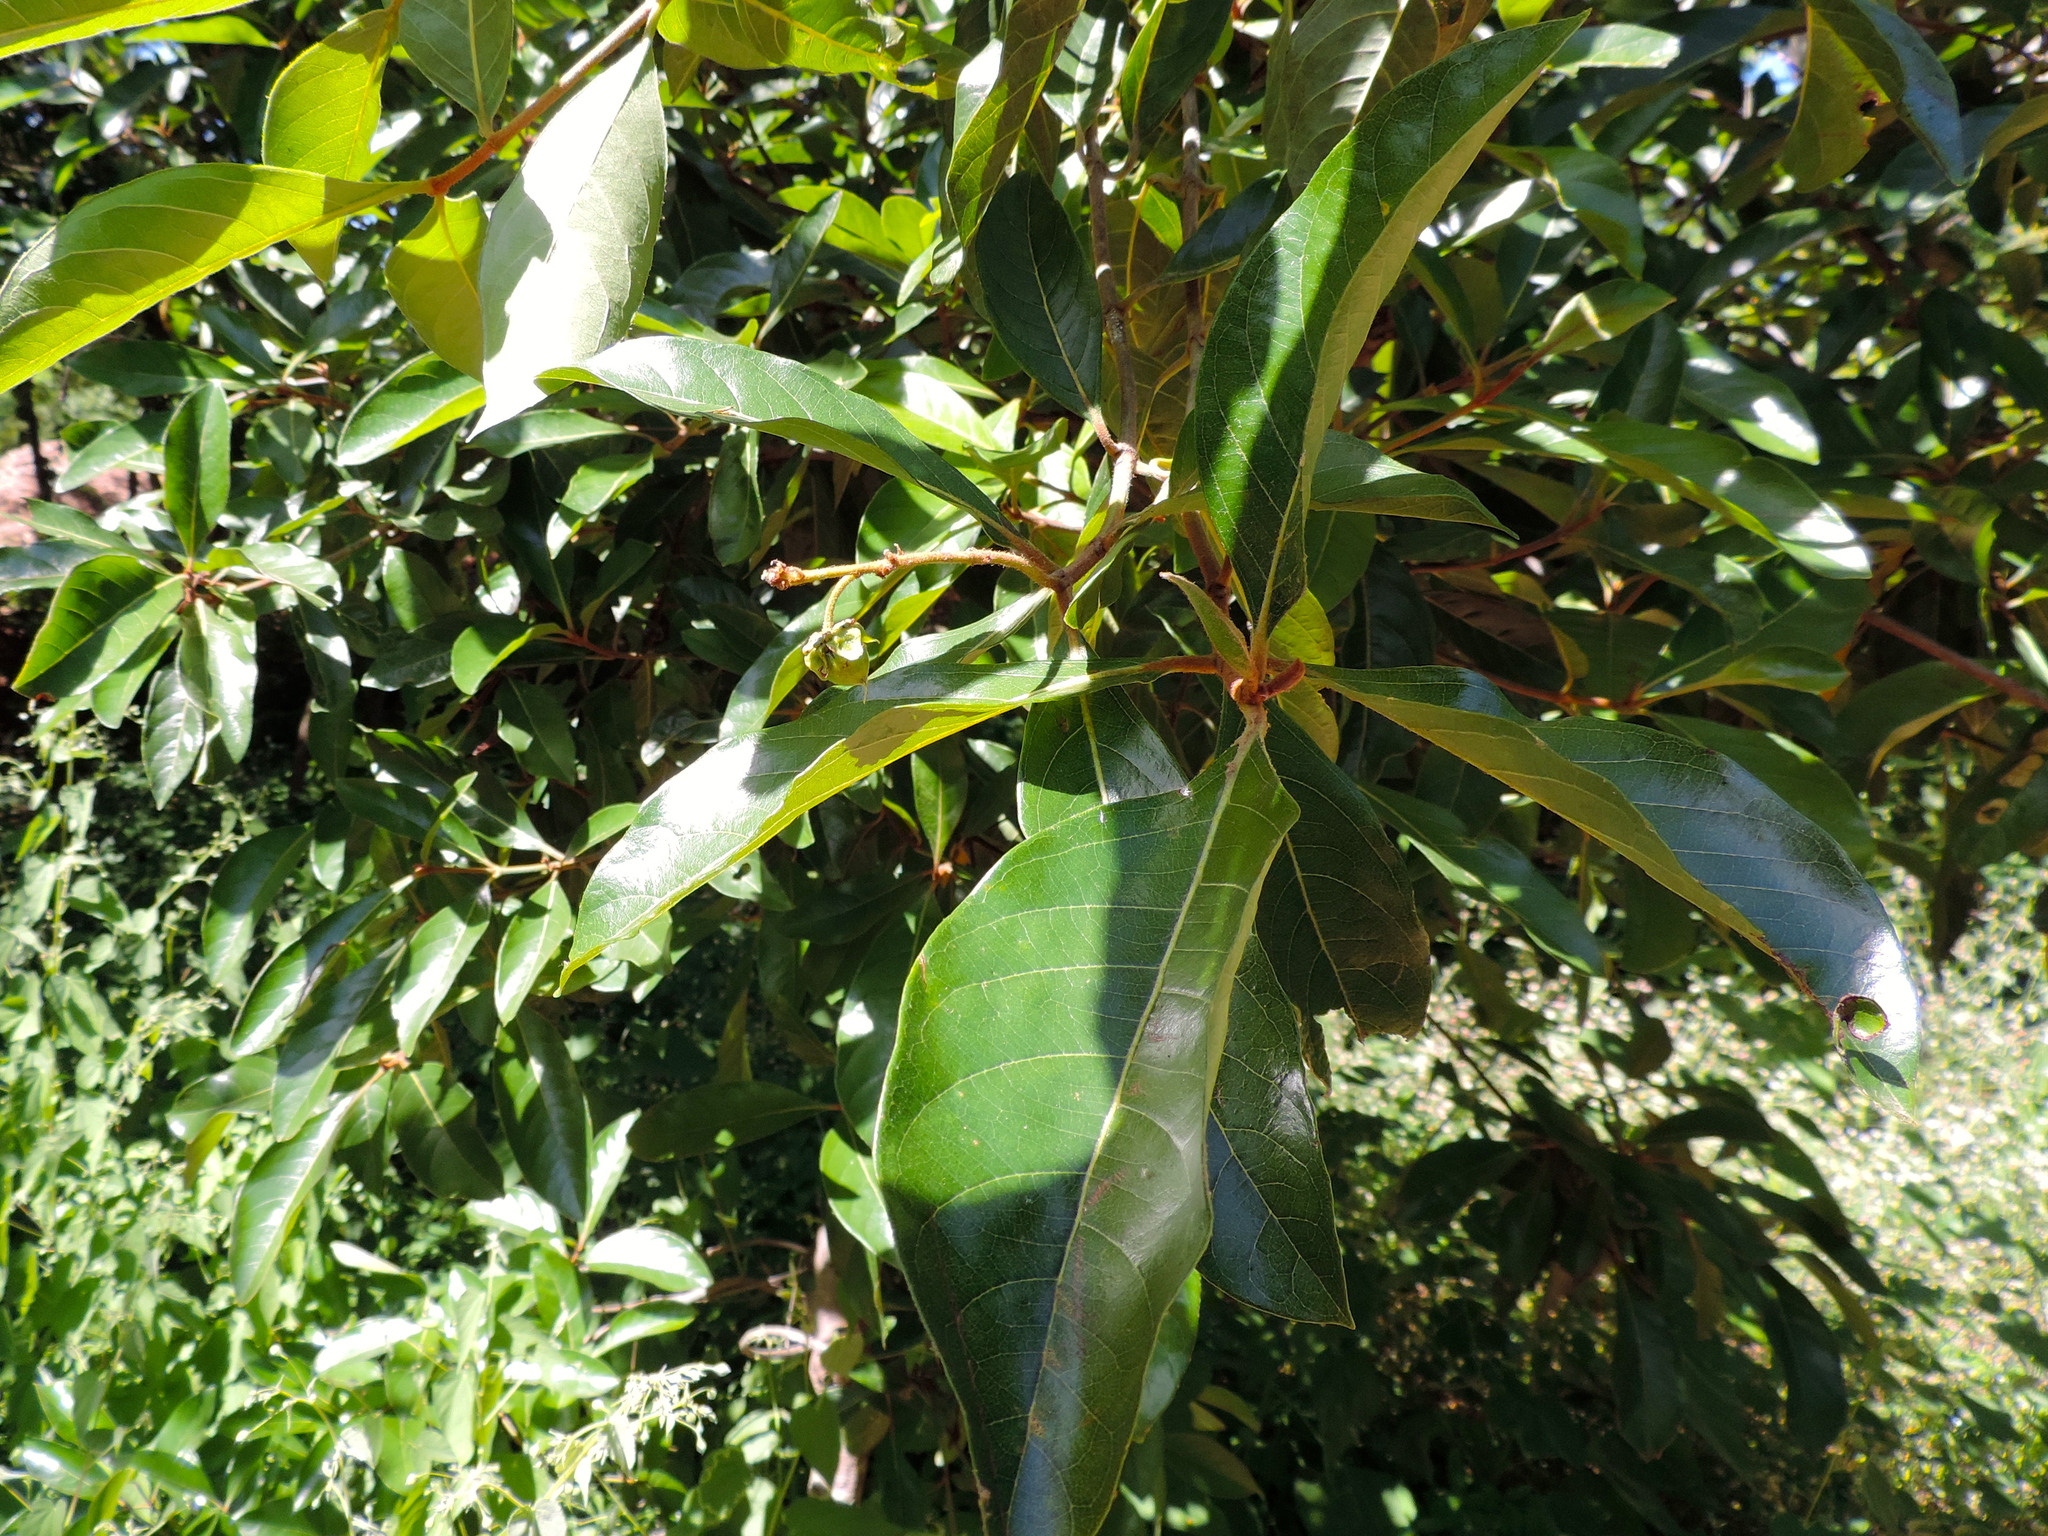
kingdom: Plantae
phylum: Tracheophyta
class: Magnoliopsida
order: Rosales
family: Moraceae
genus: Ficus
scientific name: Ficus
